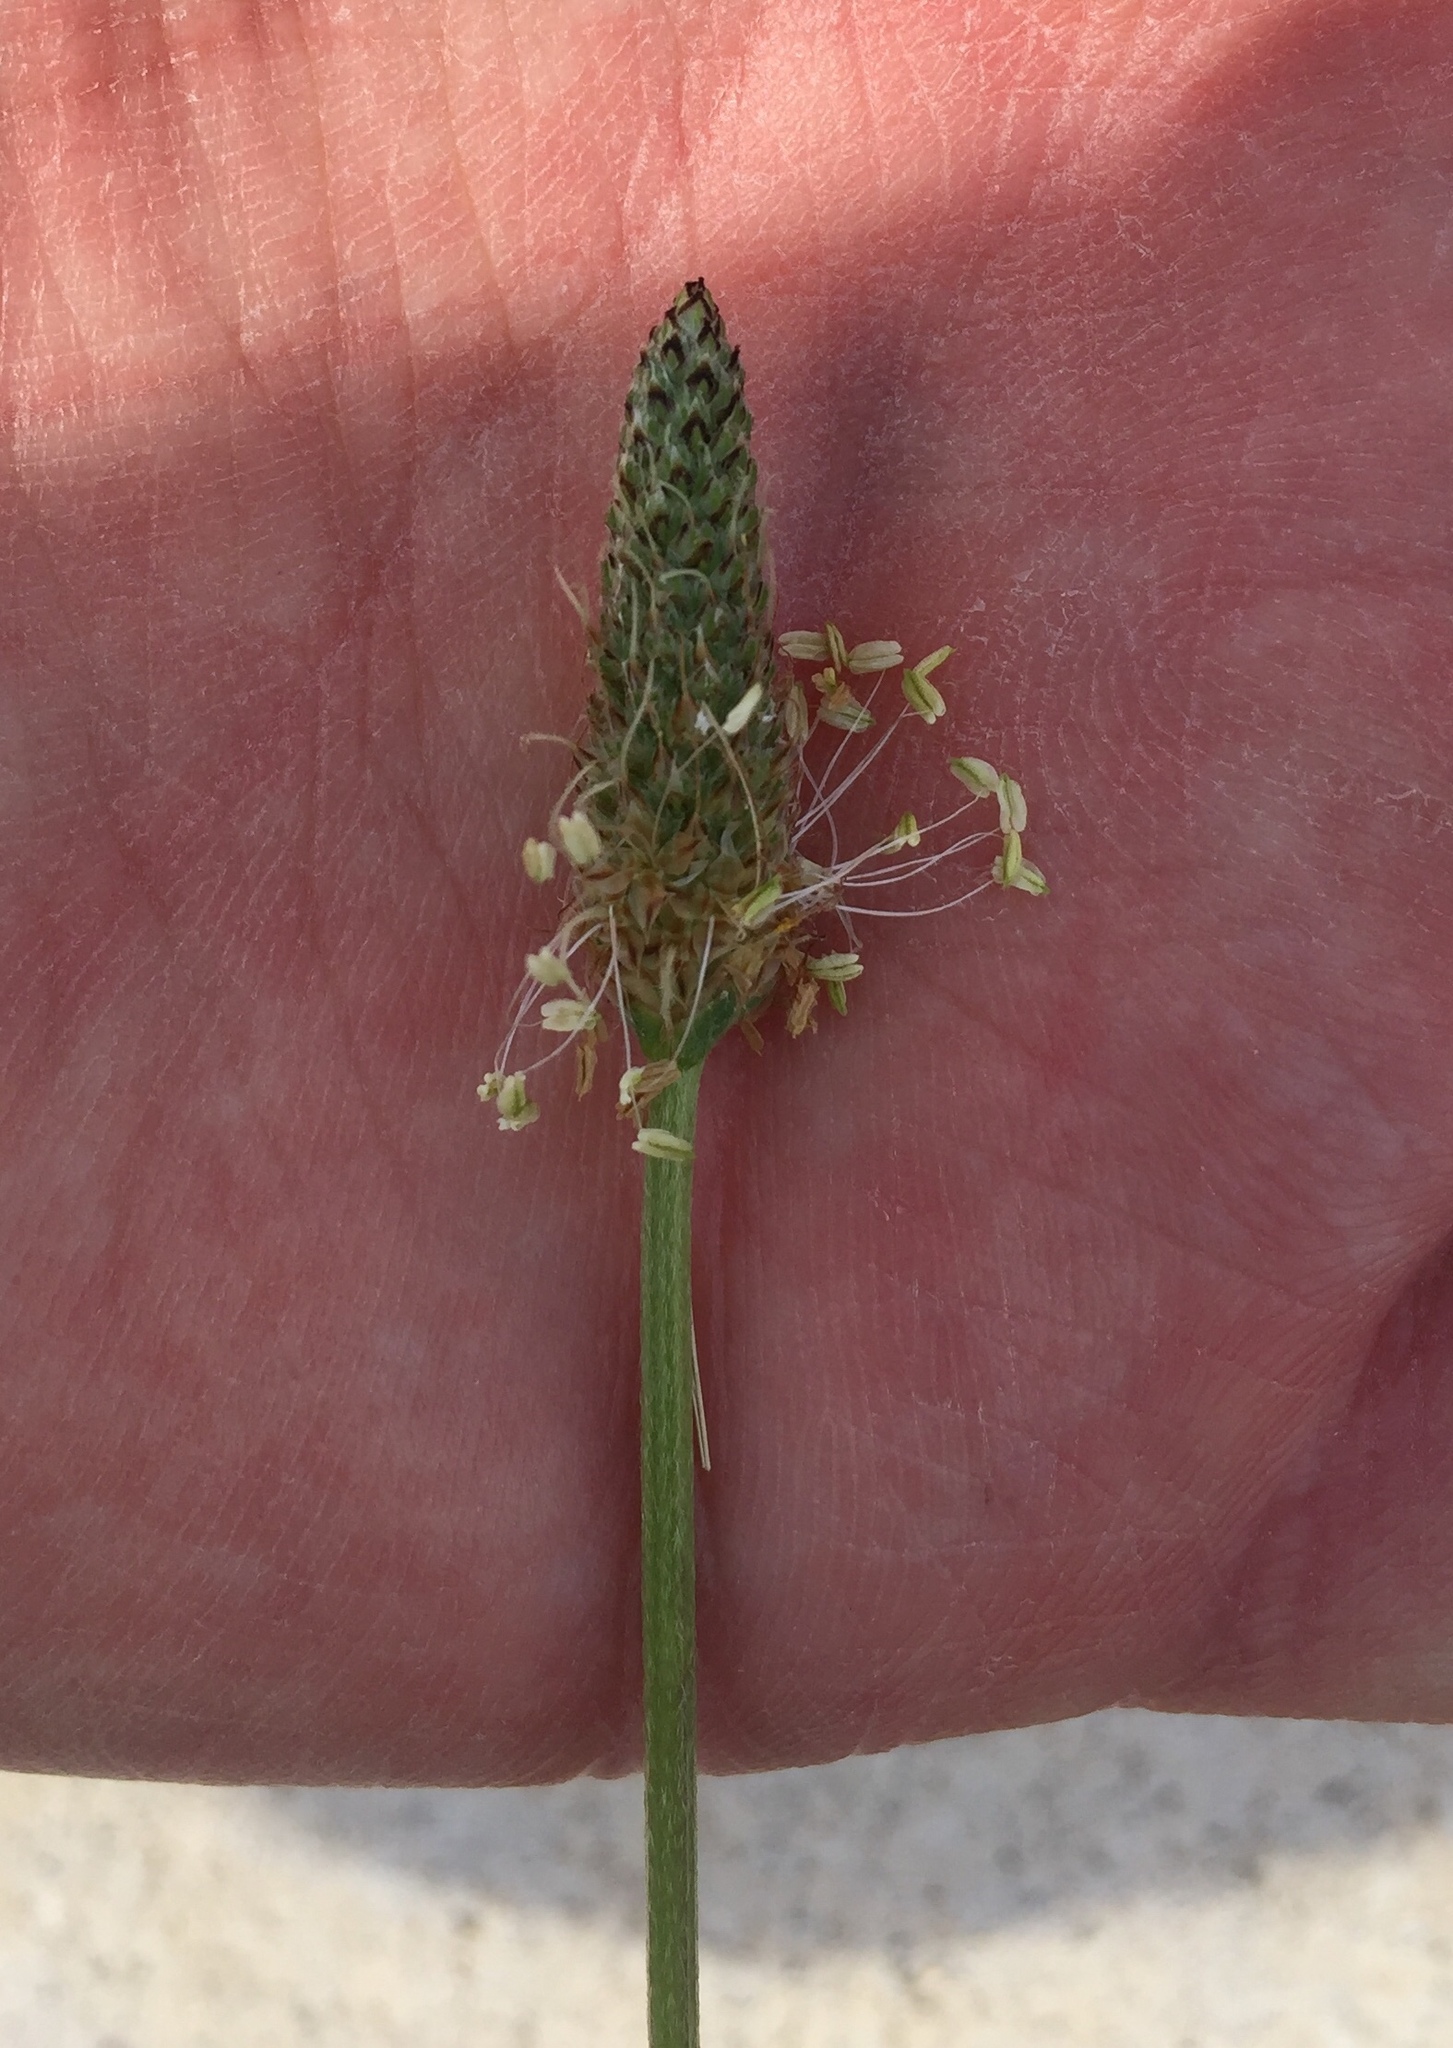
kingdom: Plantae
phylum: Tracheophyta
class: Magnoliopsida
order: Lamiales
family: Plantaginaceae
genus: Plantago
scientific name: Plantago lanceolata
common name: Ribwort plantain
